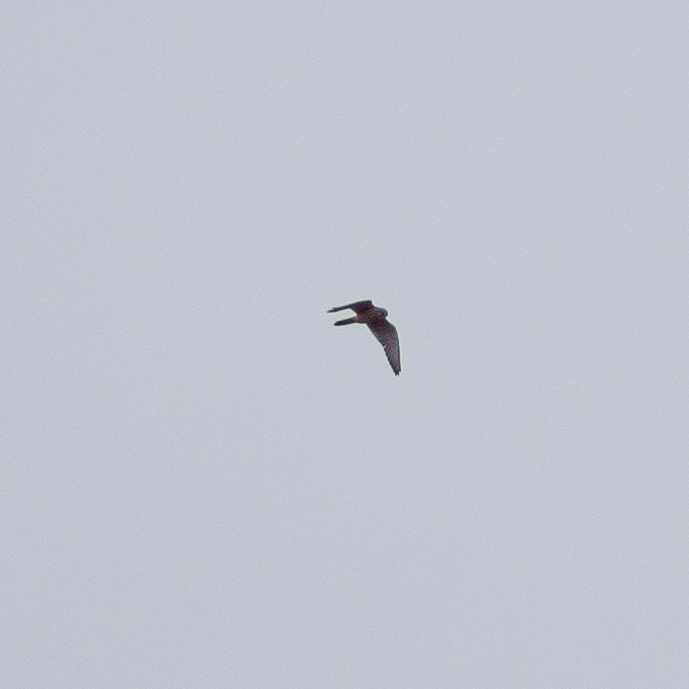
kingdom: Animalia
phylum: Chordata
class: Aves
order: Falconiformes
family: Falconidae
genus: Falco
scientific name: Falco tinnunculus
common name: Common kestrel
